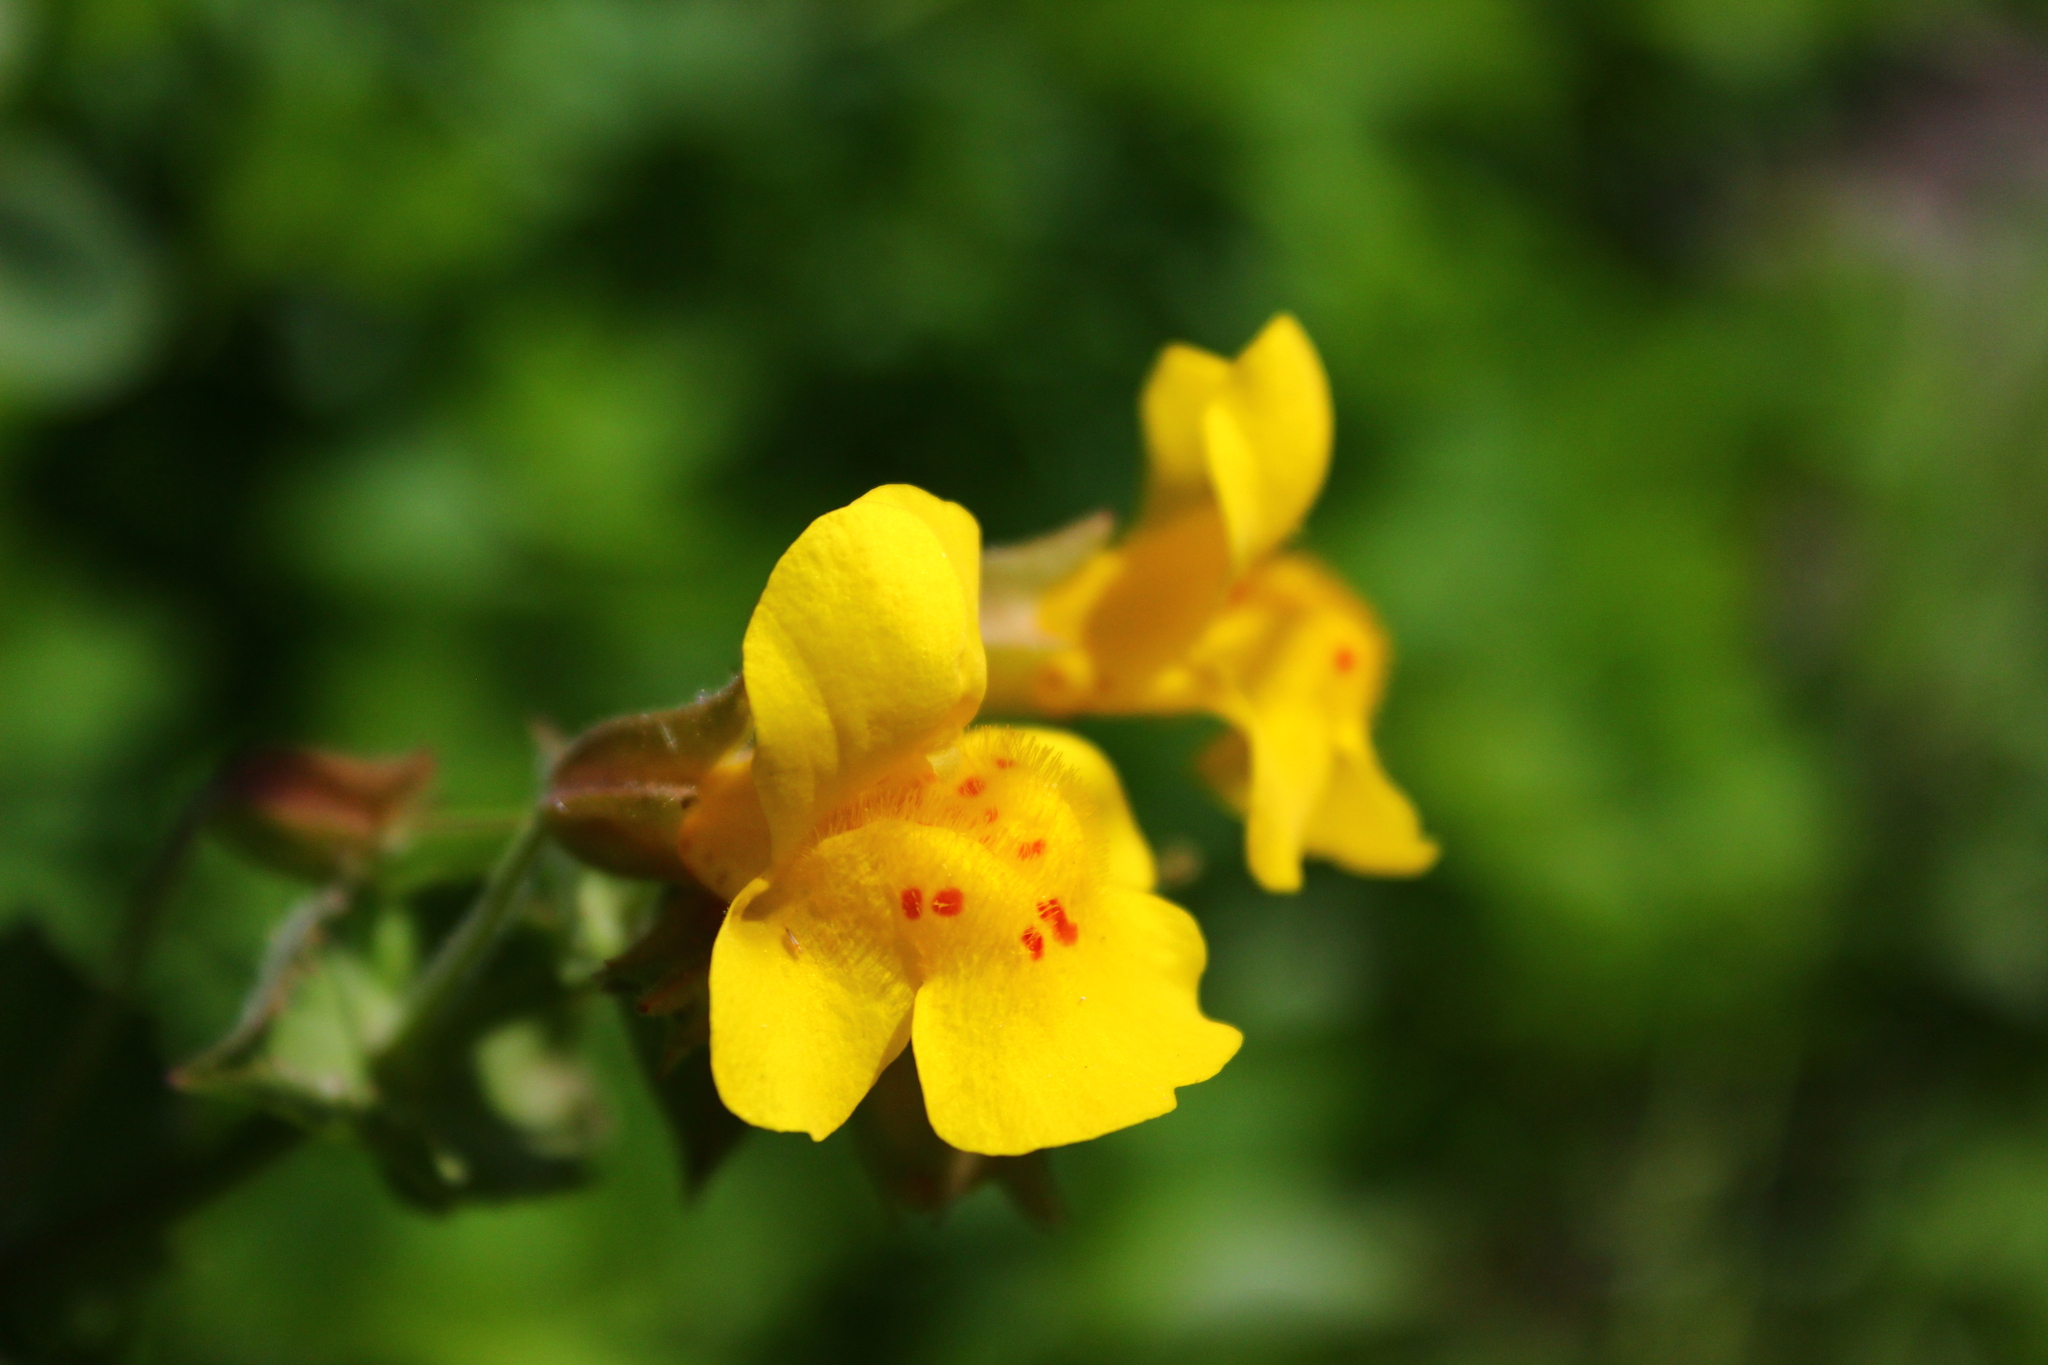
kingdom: Plantae
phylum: Tracheophyta
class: Magnoliopsida
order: Lamiales
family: Phrymaceae
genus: Erythranthe
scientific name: Erythranthe guttata
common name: Monkeyflower
